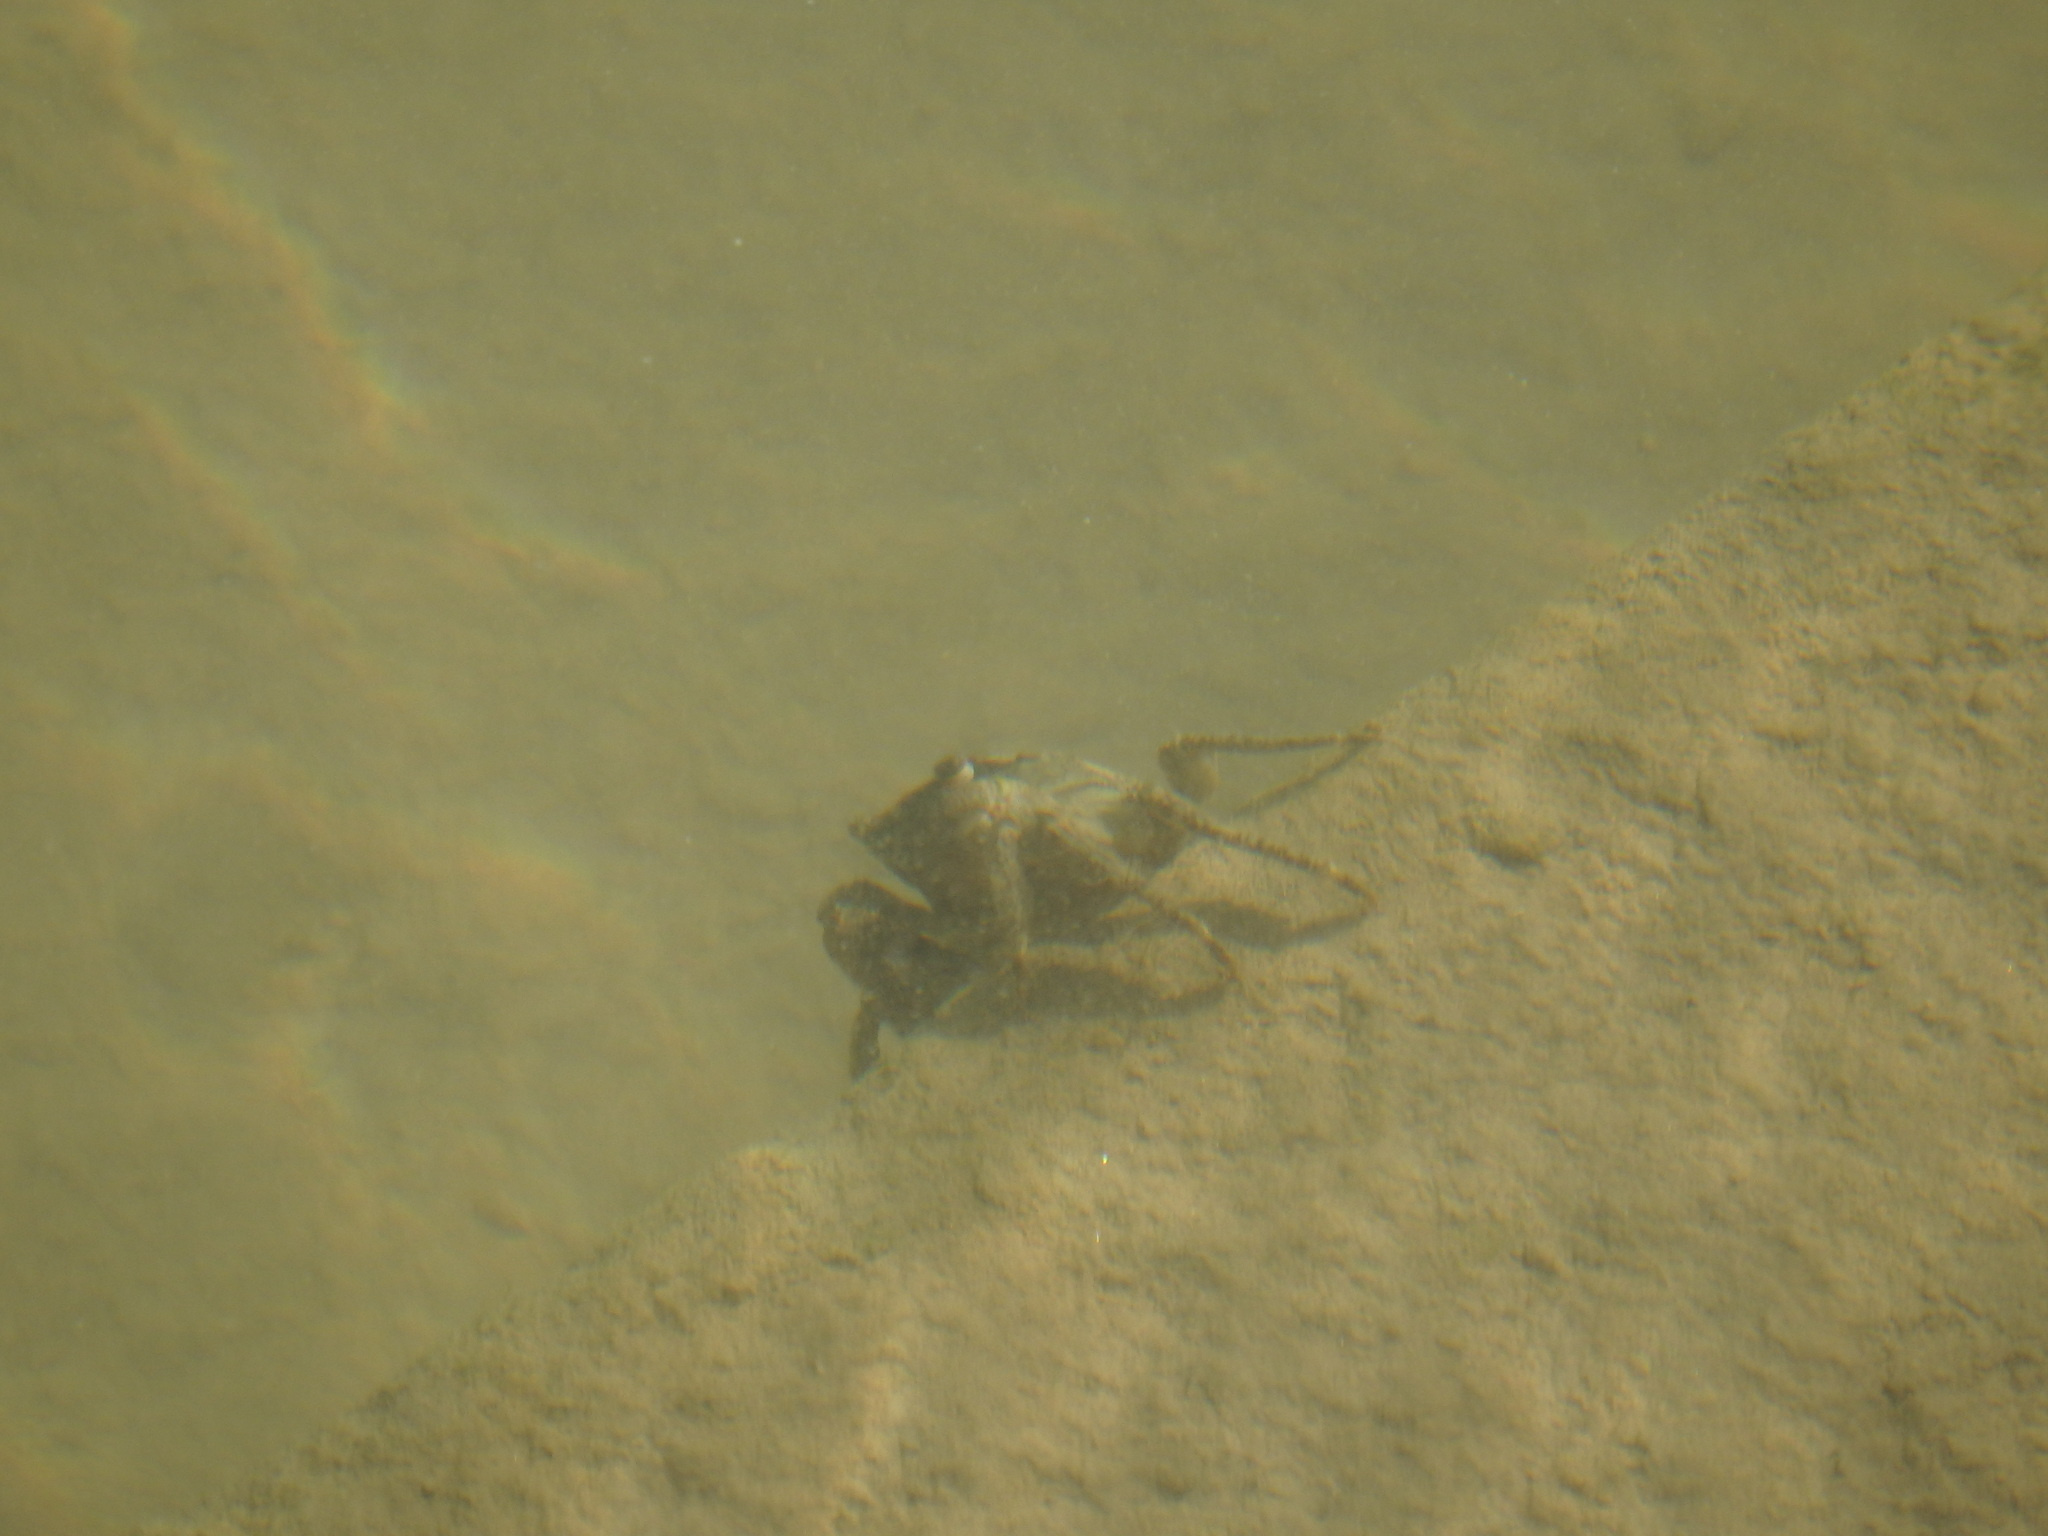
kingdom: Animalia
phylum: Arthropoda
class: Malacostraca
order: Decapoda
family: Grapsidae
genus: Pachygrapsus
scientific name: Pachygrapsus marmoratus
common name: Marbled rock crab
